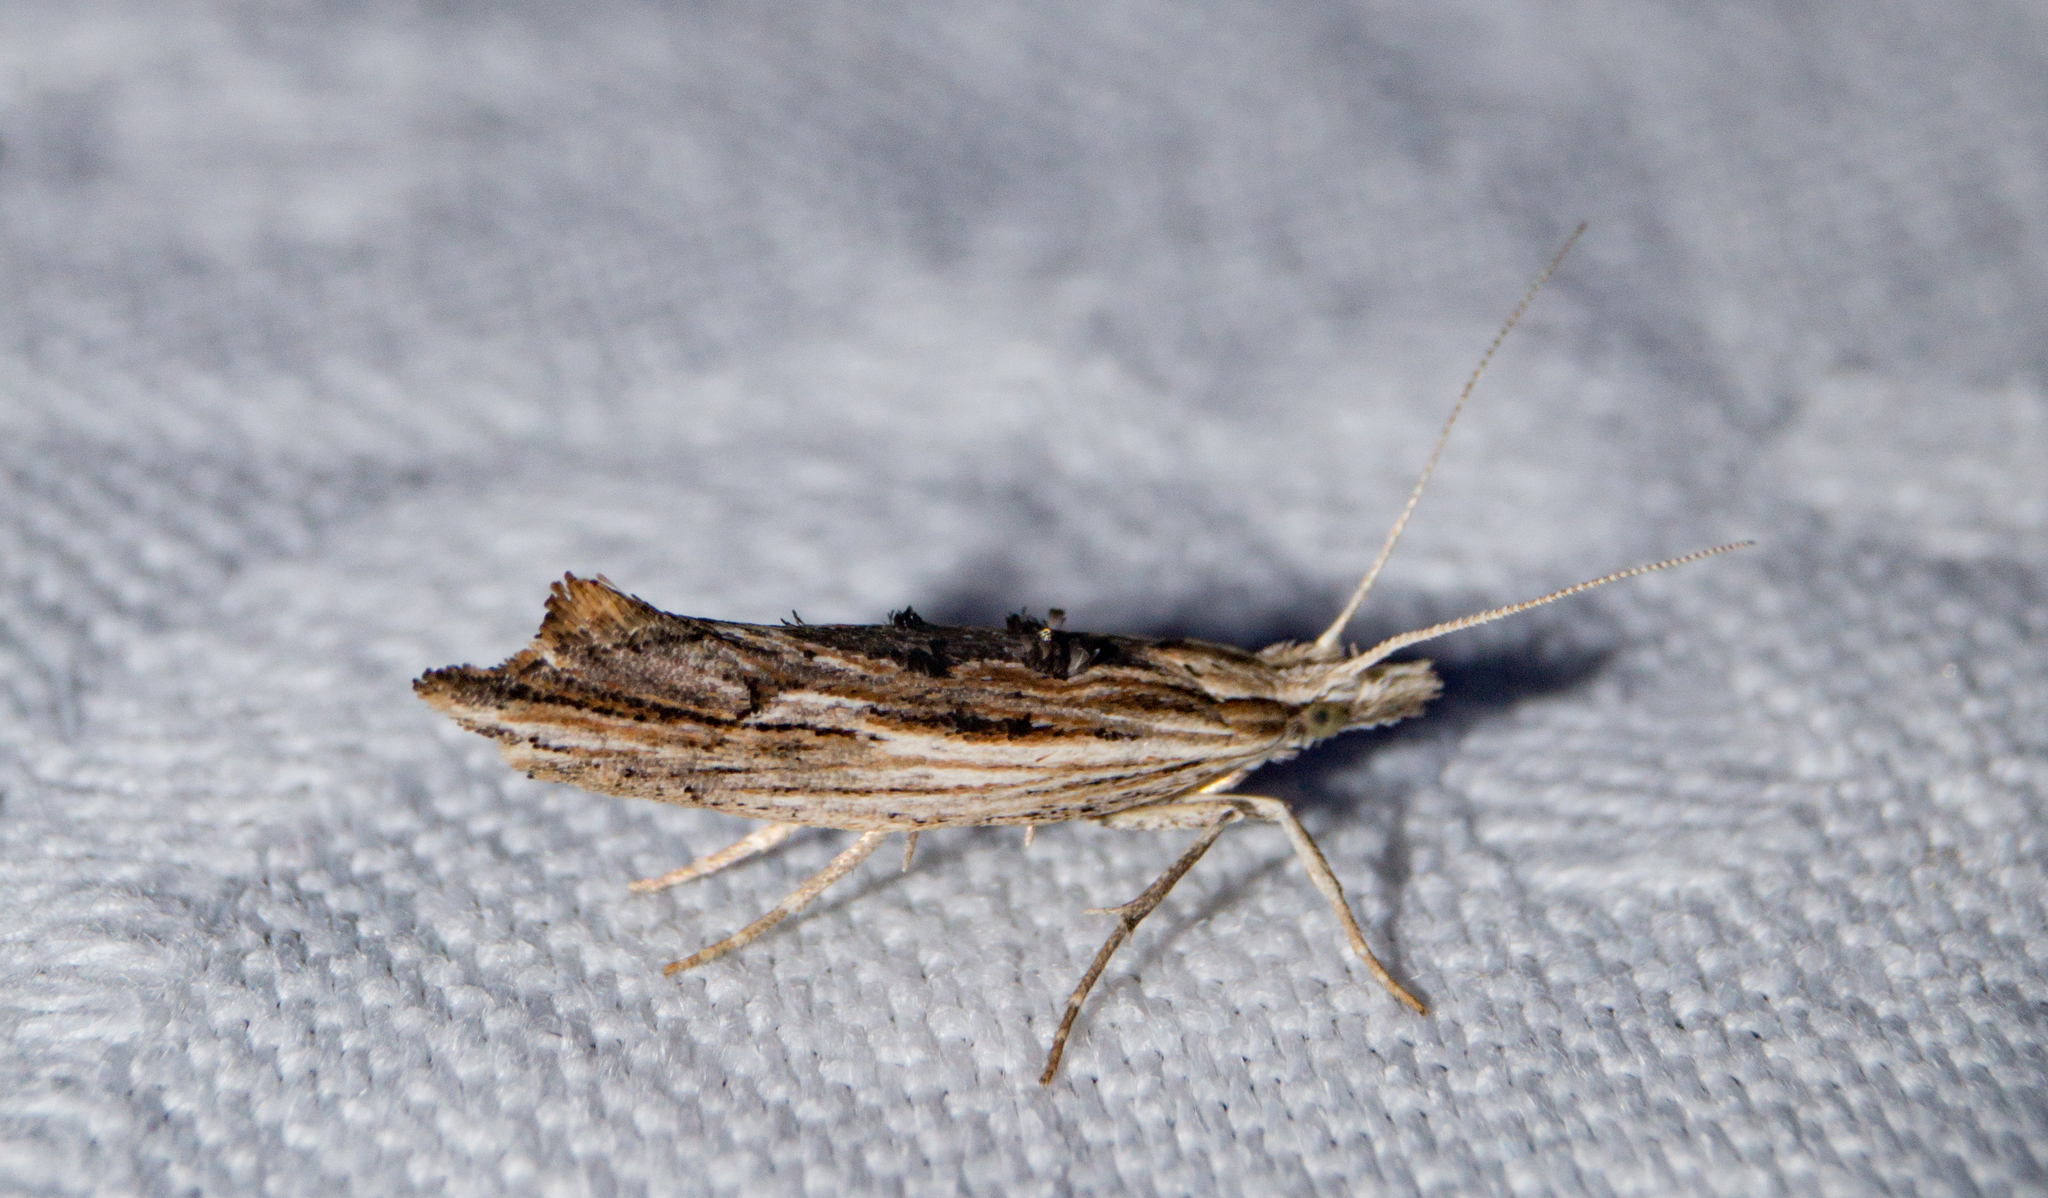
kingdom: Animalia
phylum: Arthropoda
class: Insecta
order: Lepidoptera
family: Ypsolophidae
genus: Ypsolopha
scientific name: Ypsolopha scabrella
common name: Wainscot smudge
